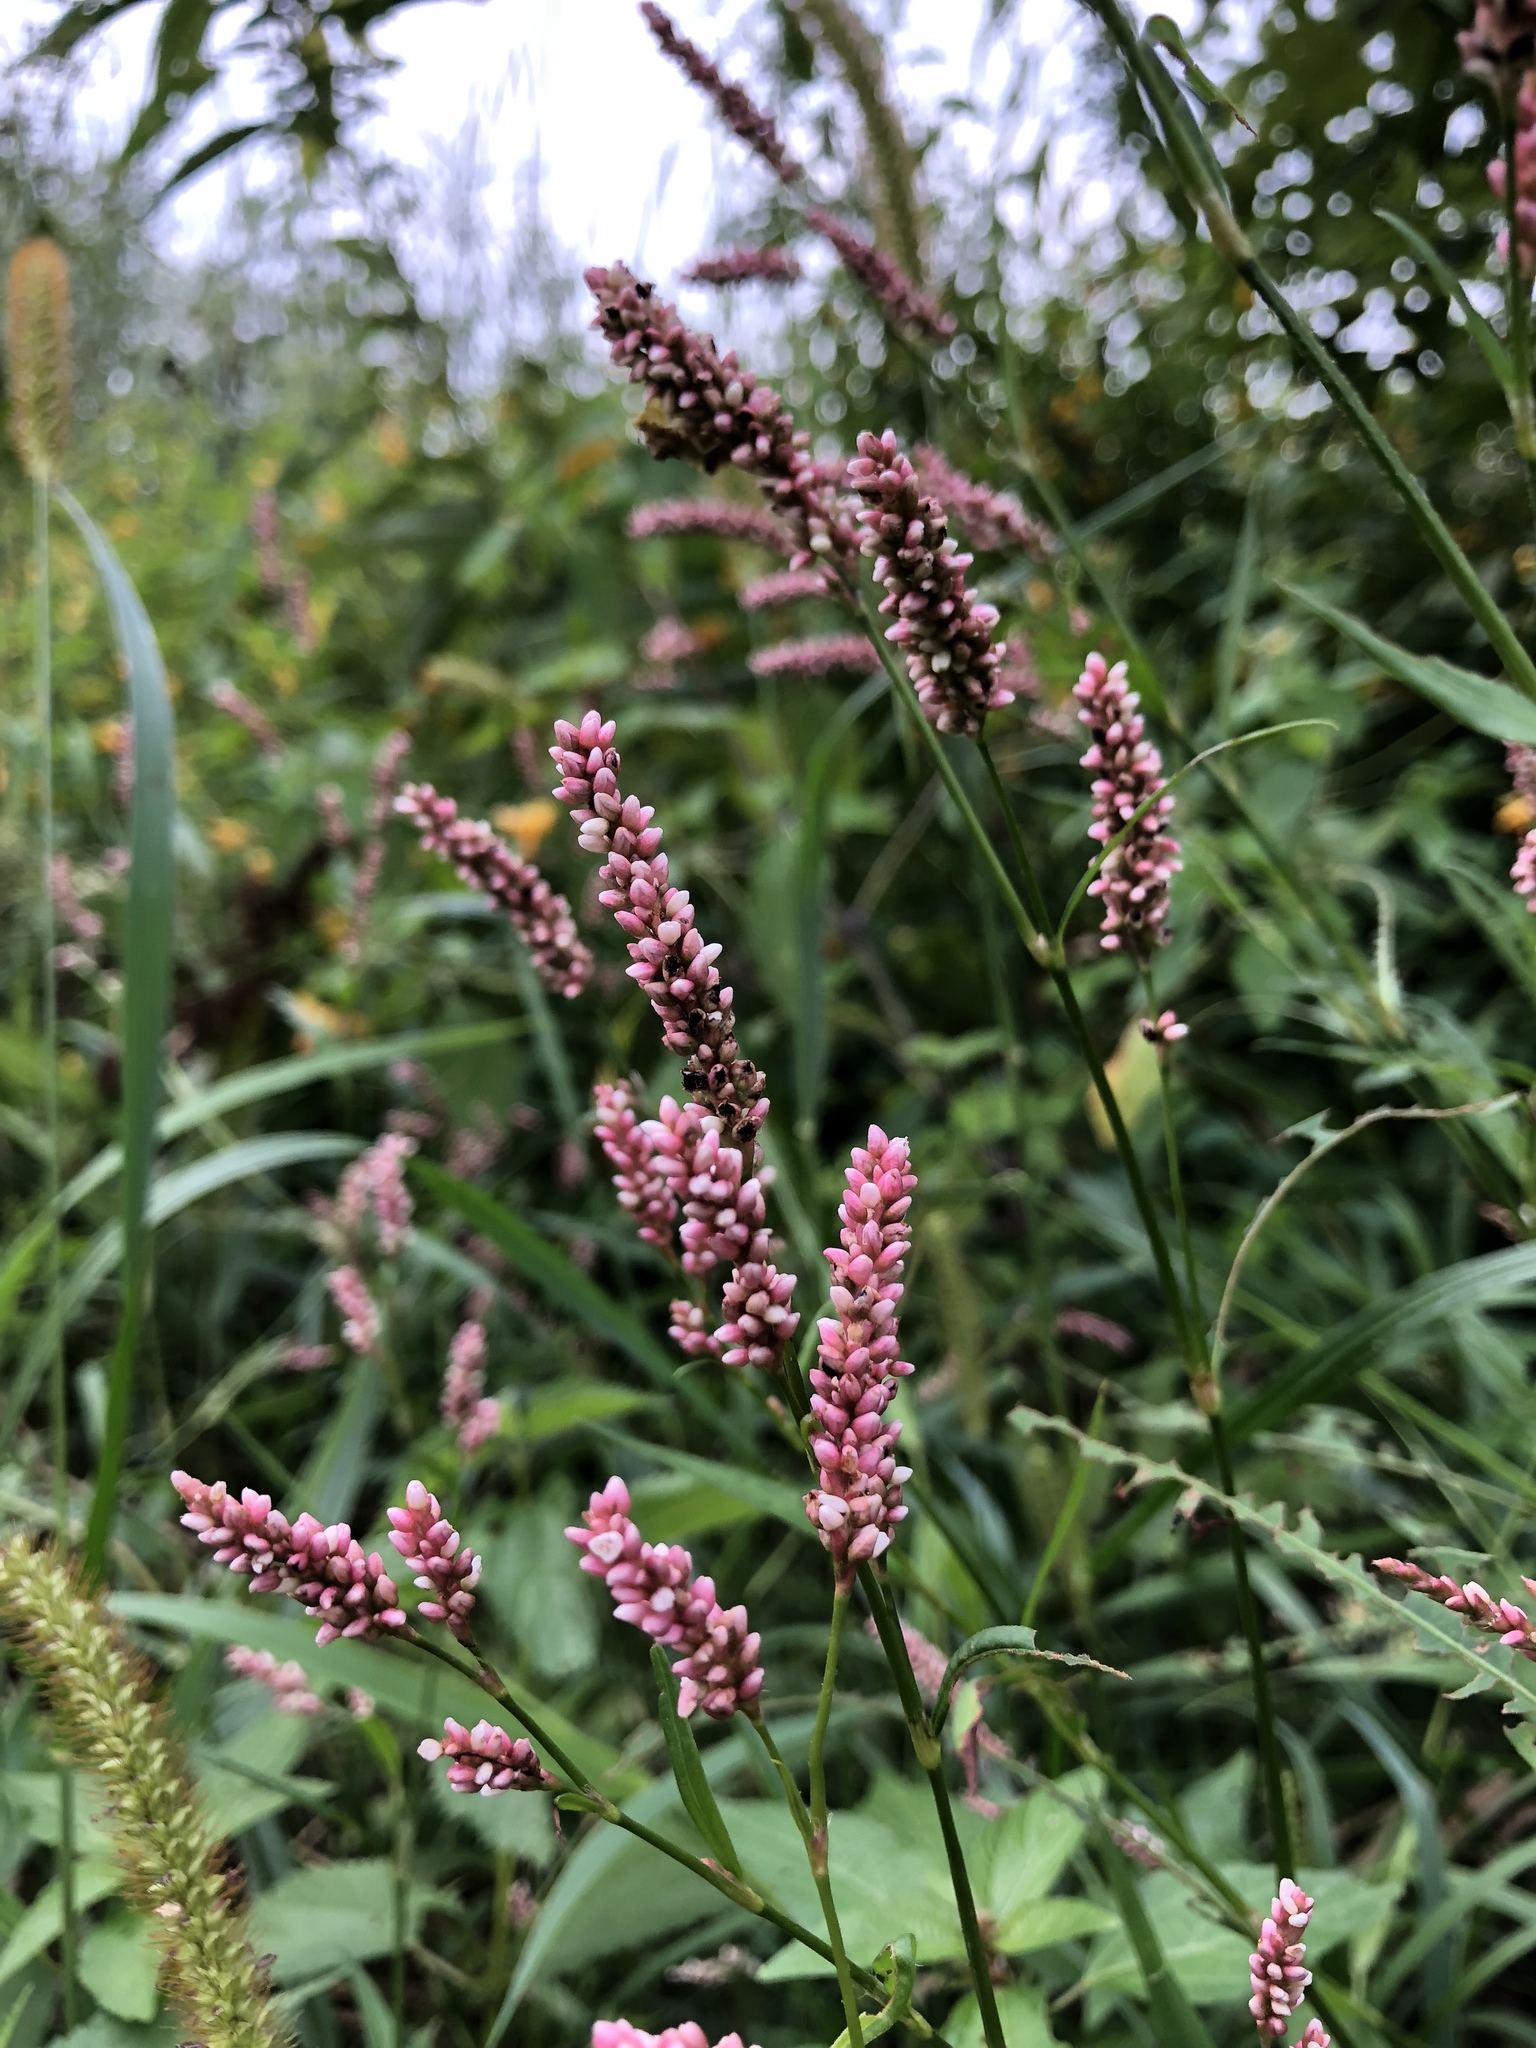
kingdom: Plantae
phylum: Tracheophyta
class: Magnoliopsida
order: Caryophyllales
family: Polygonaceae
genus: Persicaria
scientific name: Persicaria maculosa
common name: Redshank
